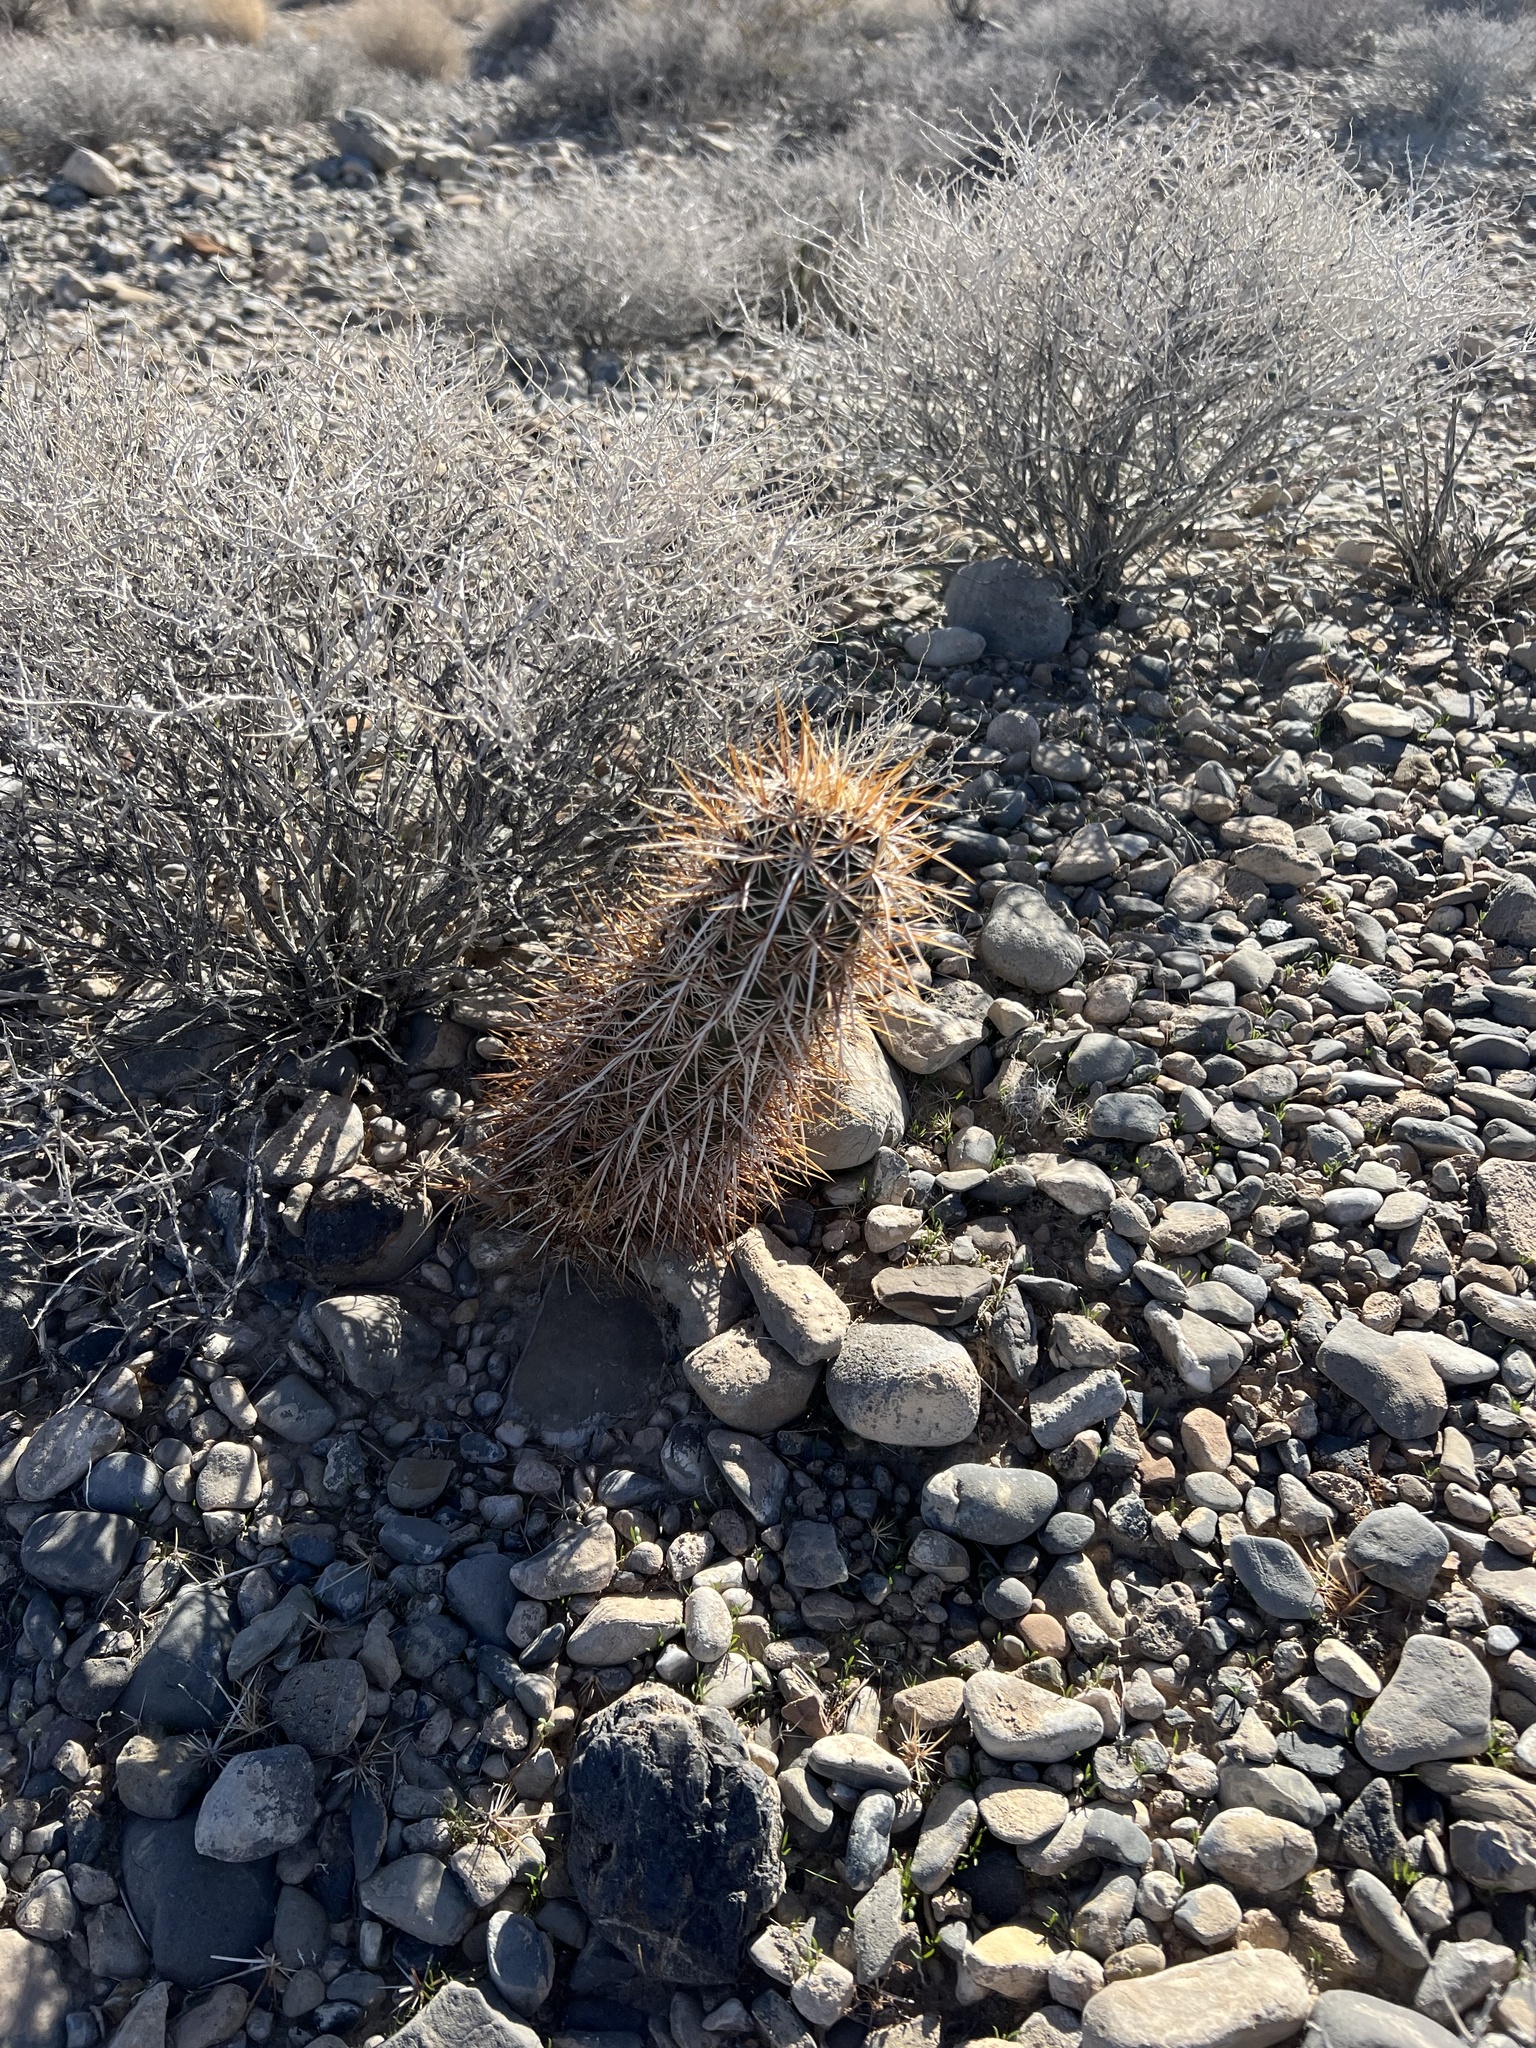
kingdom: Plantae
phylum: Tracheophyta
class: Magnoliopsida
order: Caryophyllales
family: Cactaceae
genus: Echinocereus
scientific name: Echinocereus engelmannii
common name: Engelmann's hedgehog cactus
